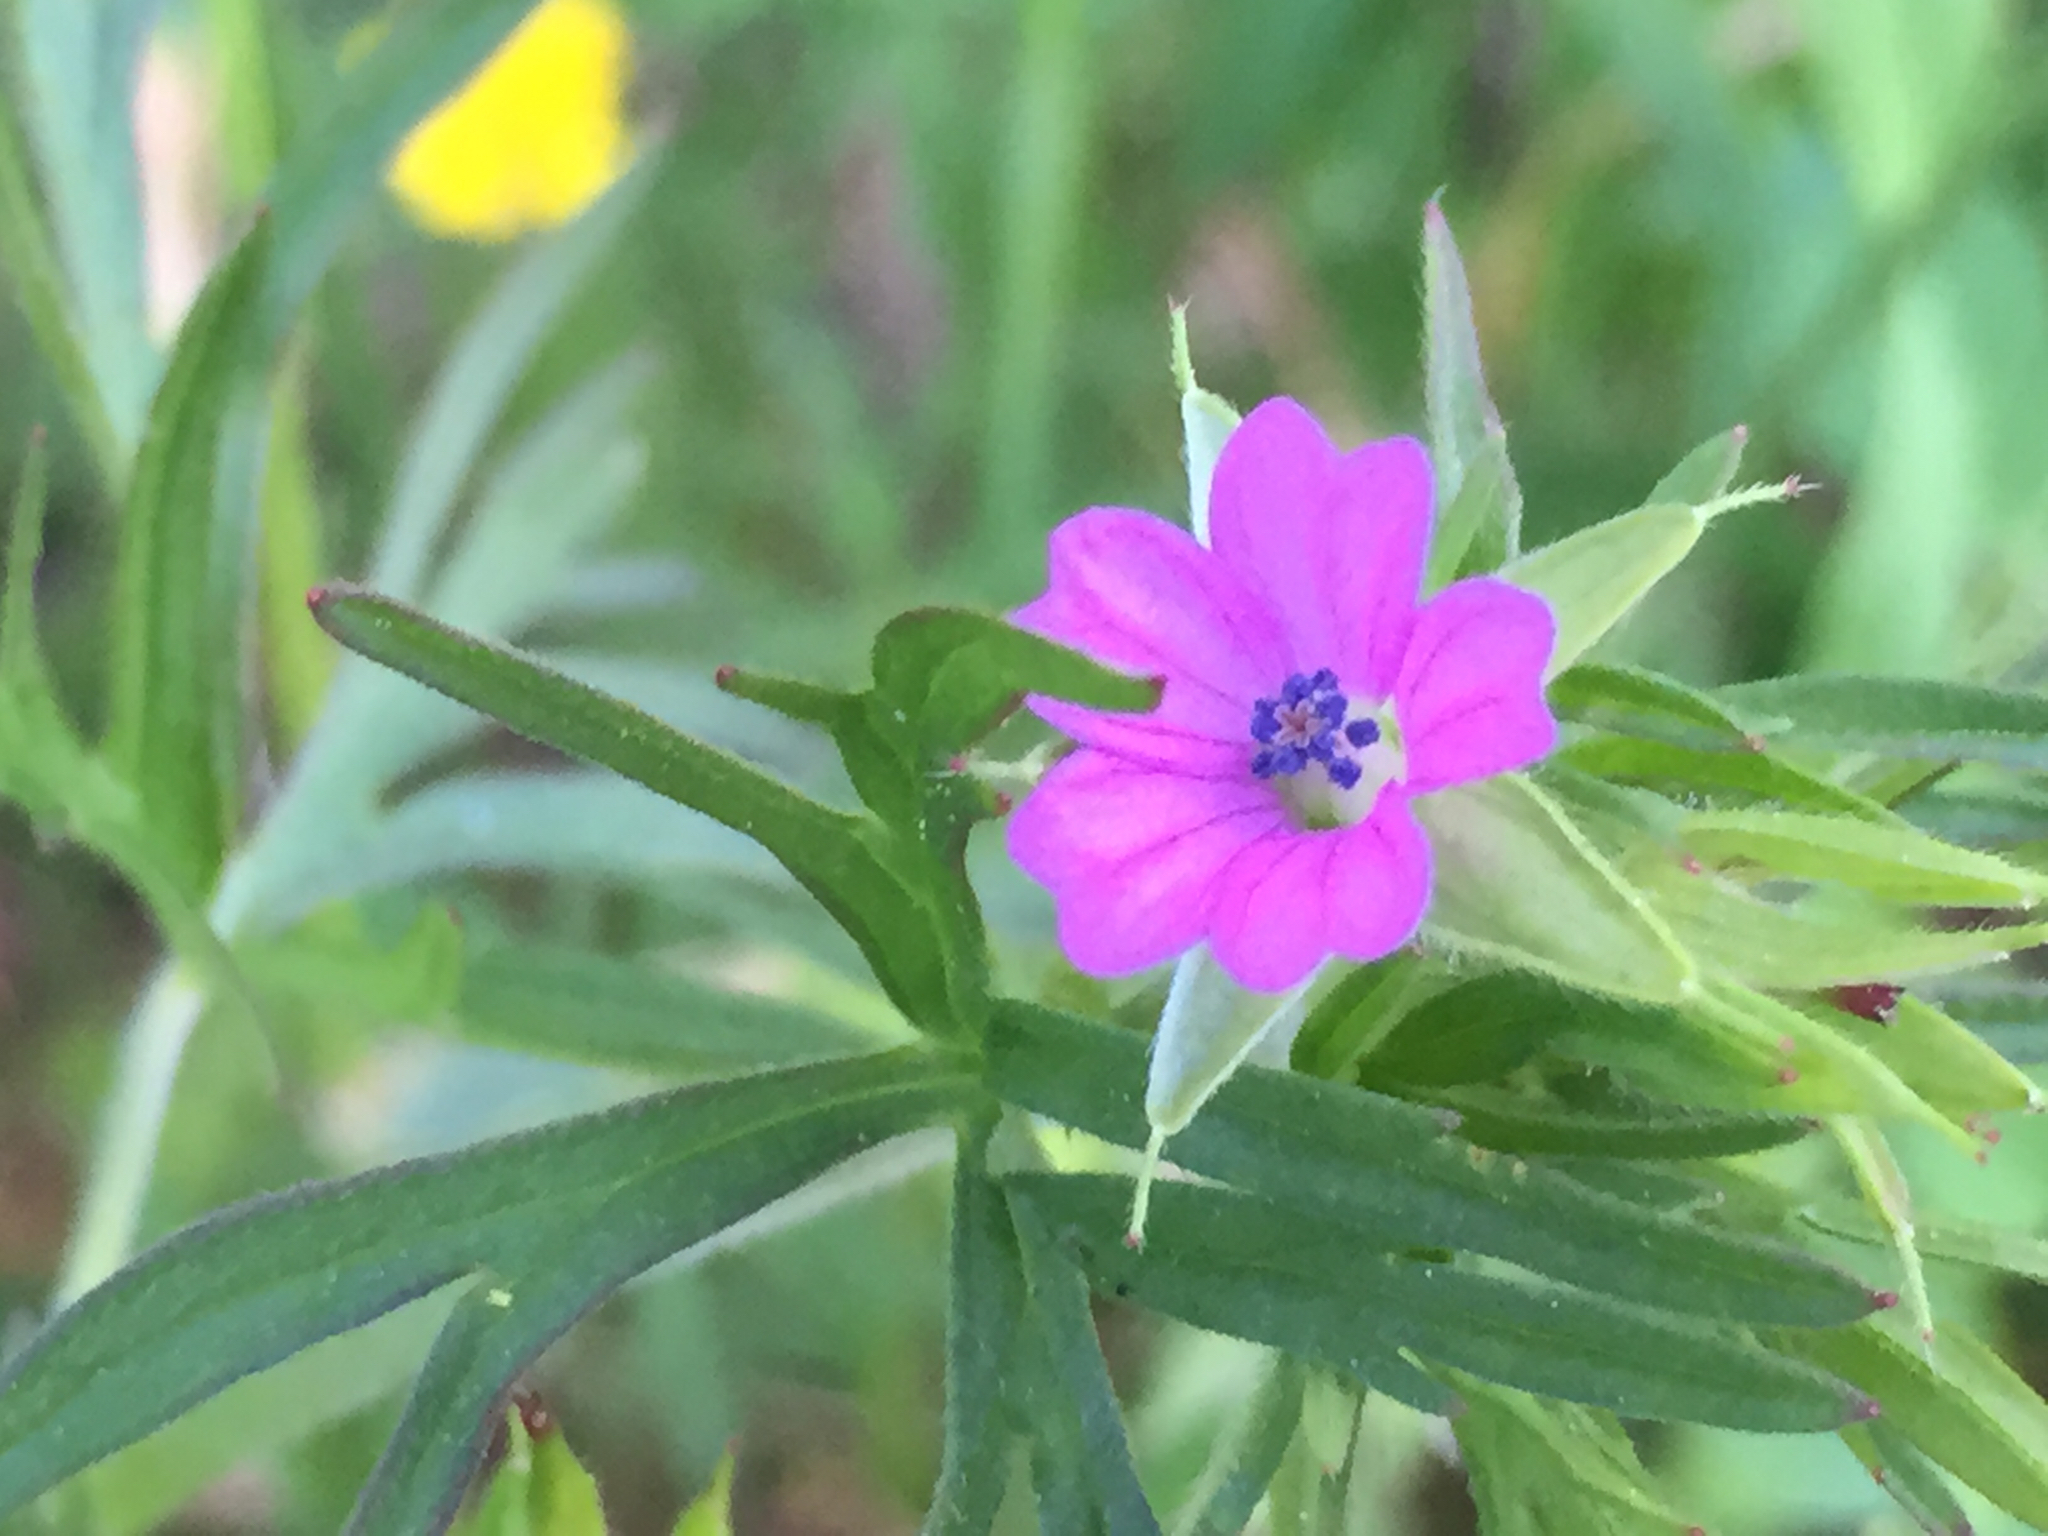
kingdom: Plantae
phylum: Tracheophyta
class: Magnoliopsida
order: Geraniales
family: Geraniaceae
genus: Geranium
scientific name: Geranium dissectum
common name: Cut-leaved crane's-bill
